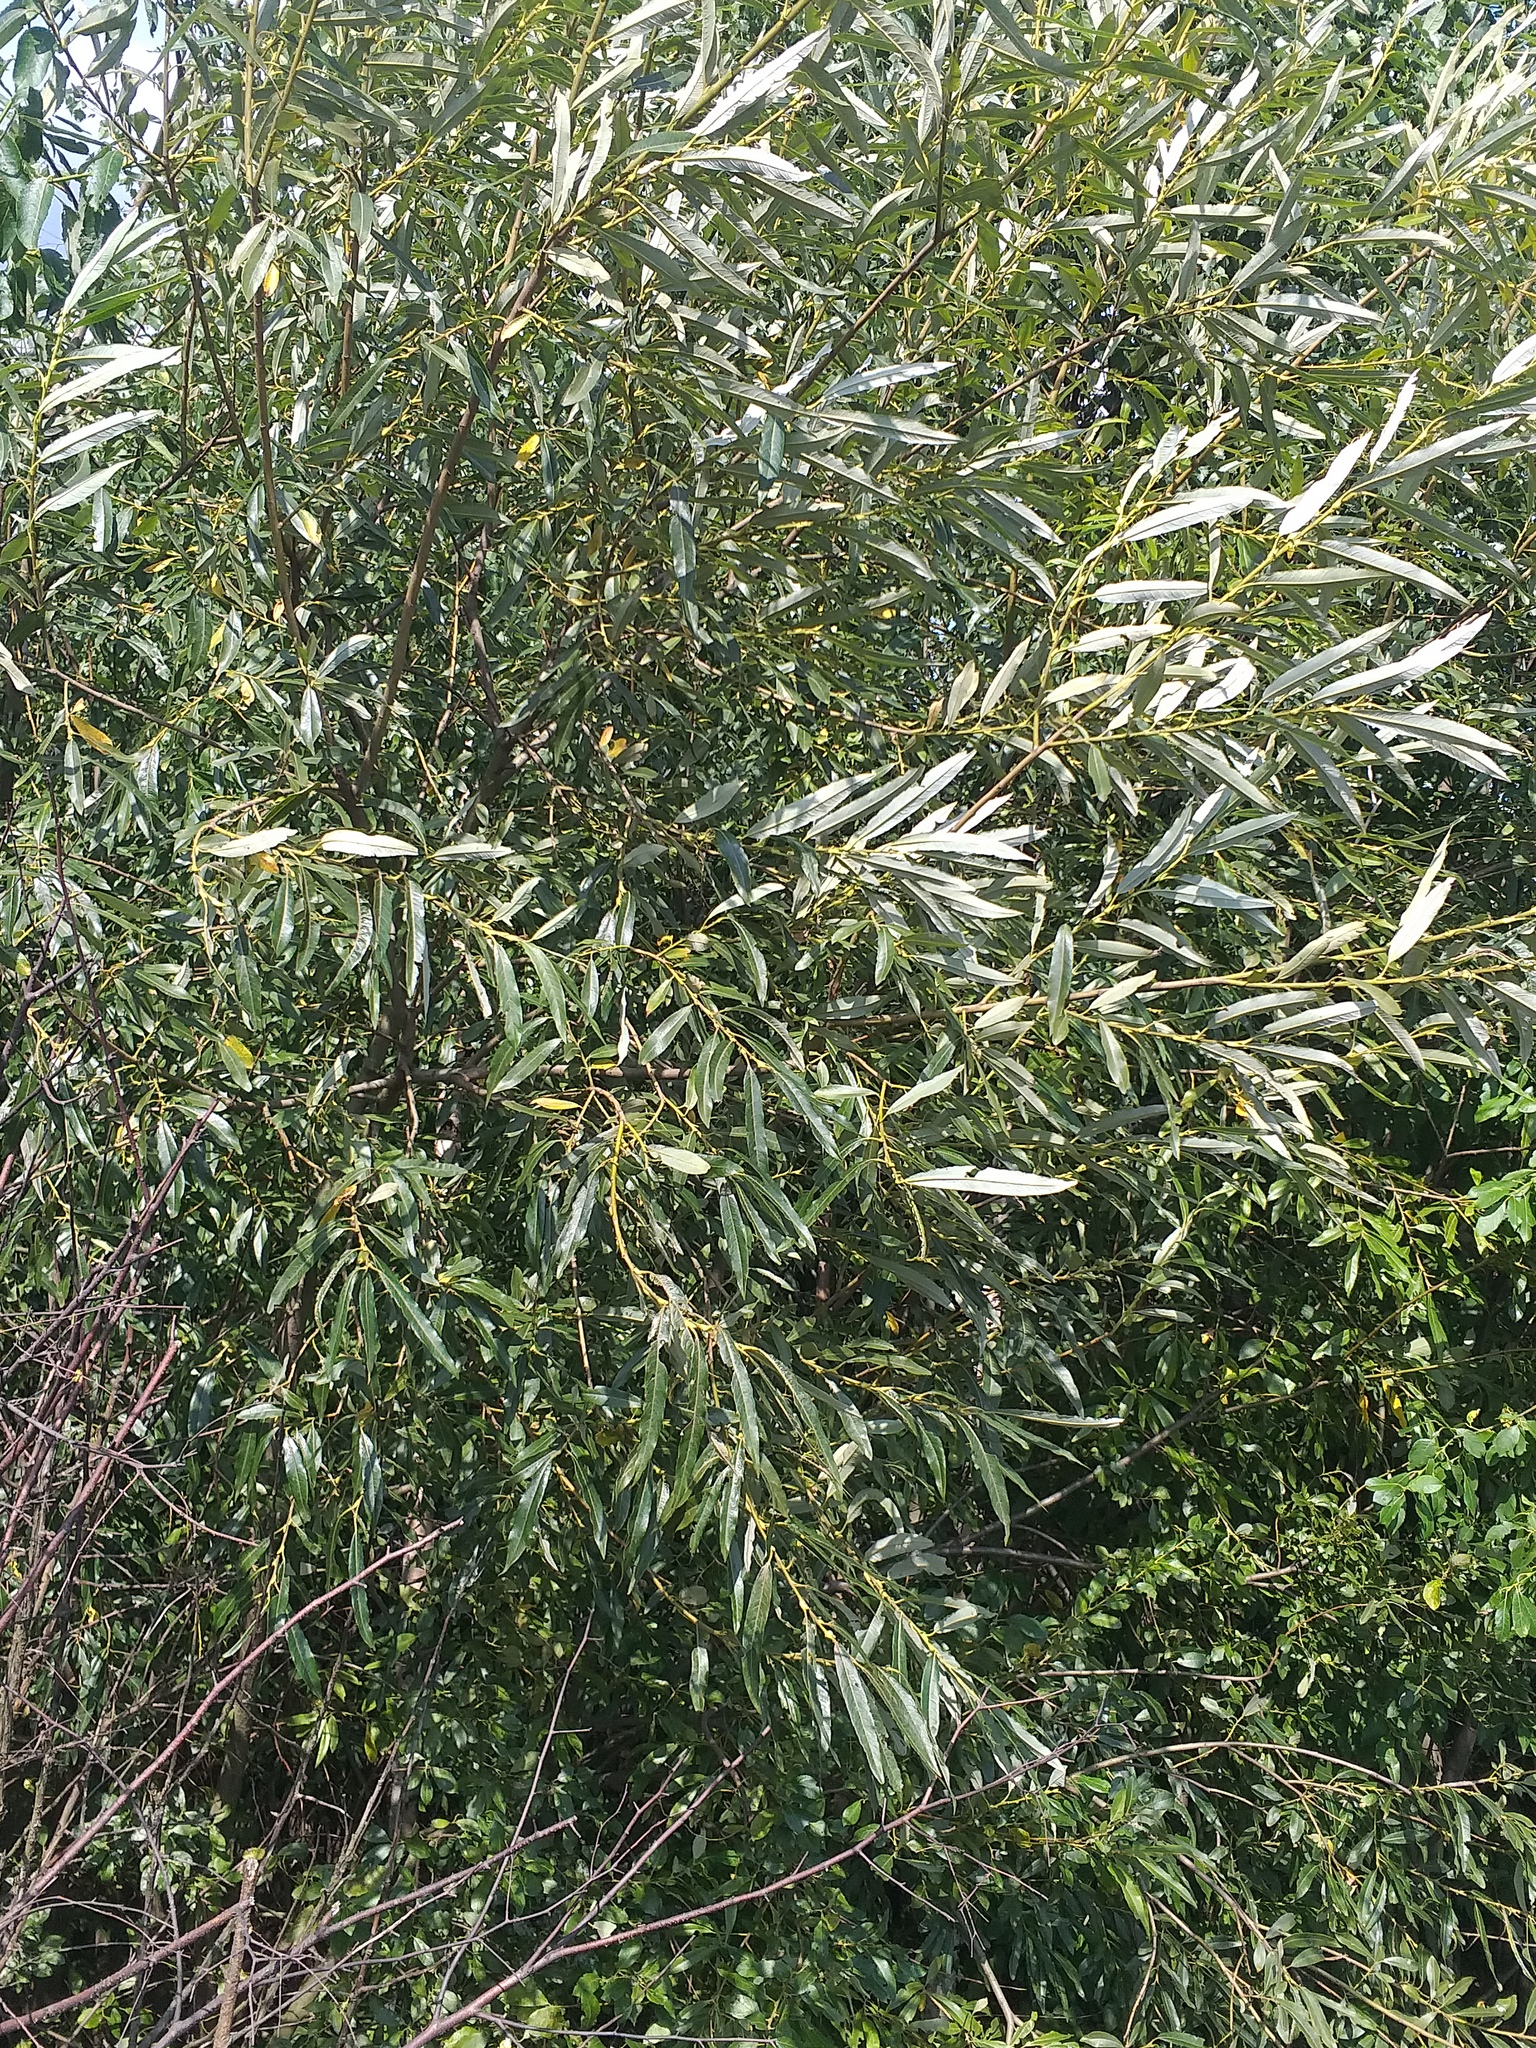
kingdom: Plantae
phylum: Tracheophyta
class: Magnoliopsida
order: Malpighiales
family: Salicaceae
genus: Salix
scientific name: Salix gmelinii
